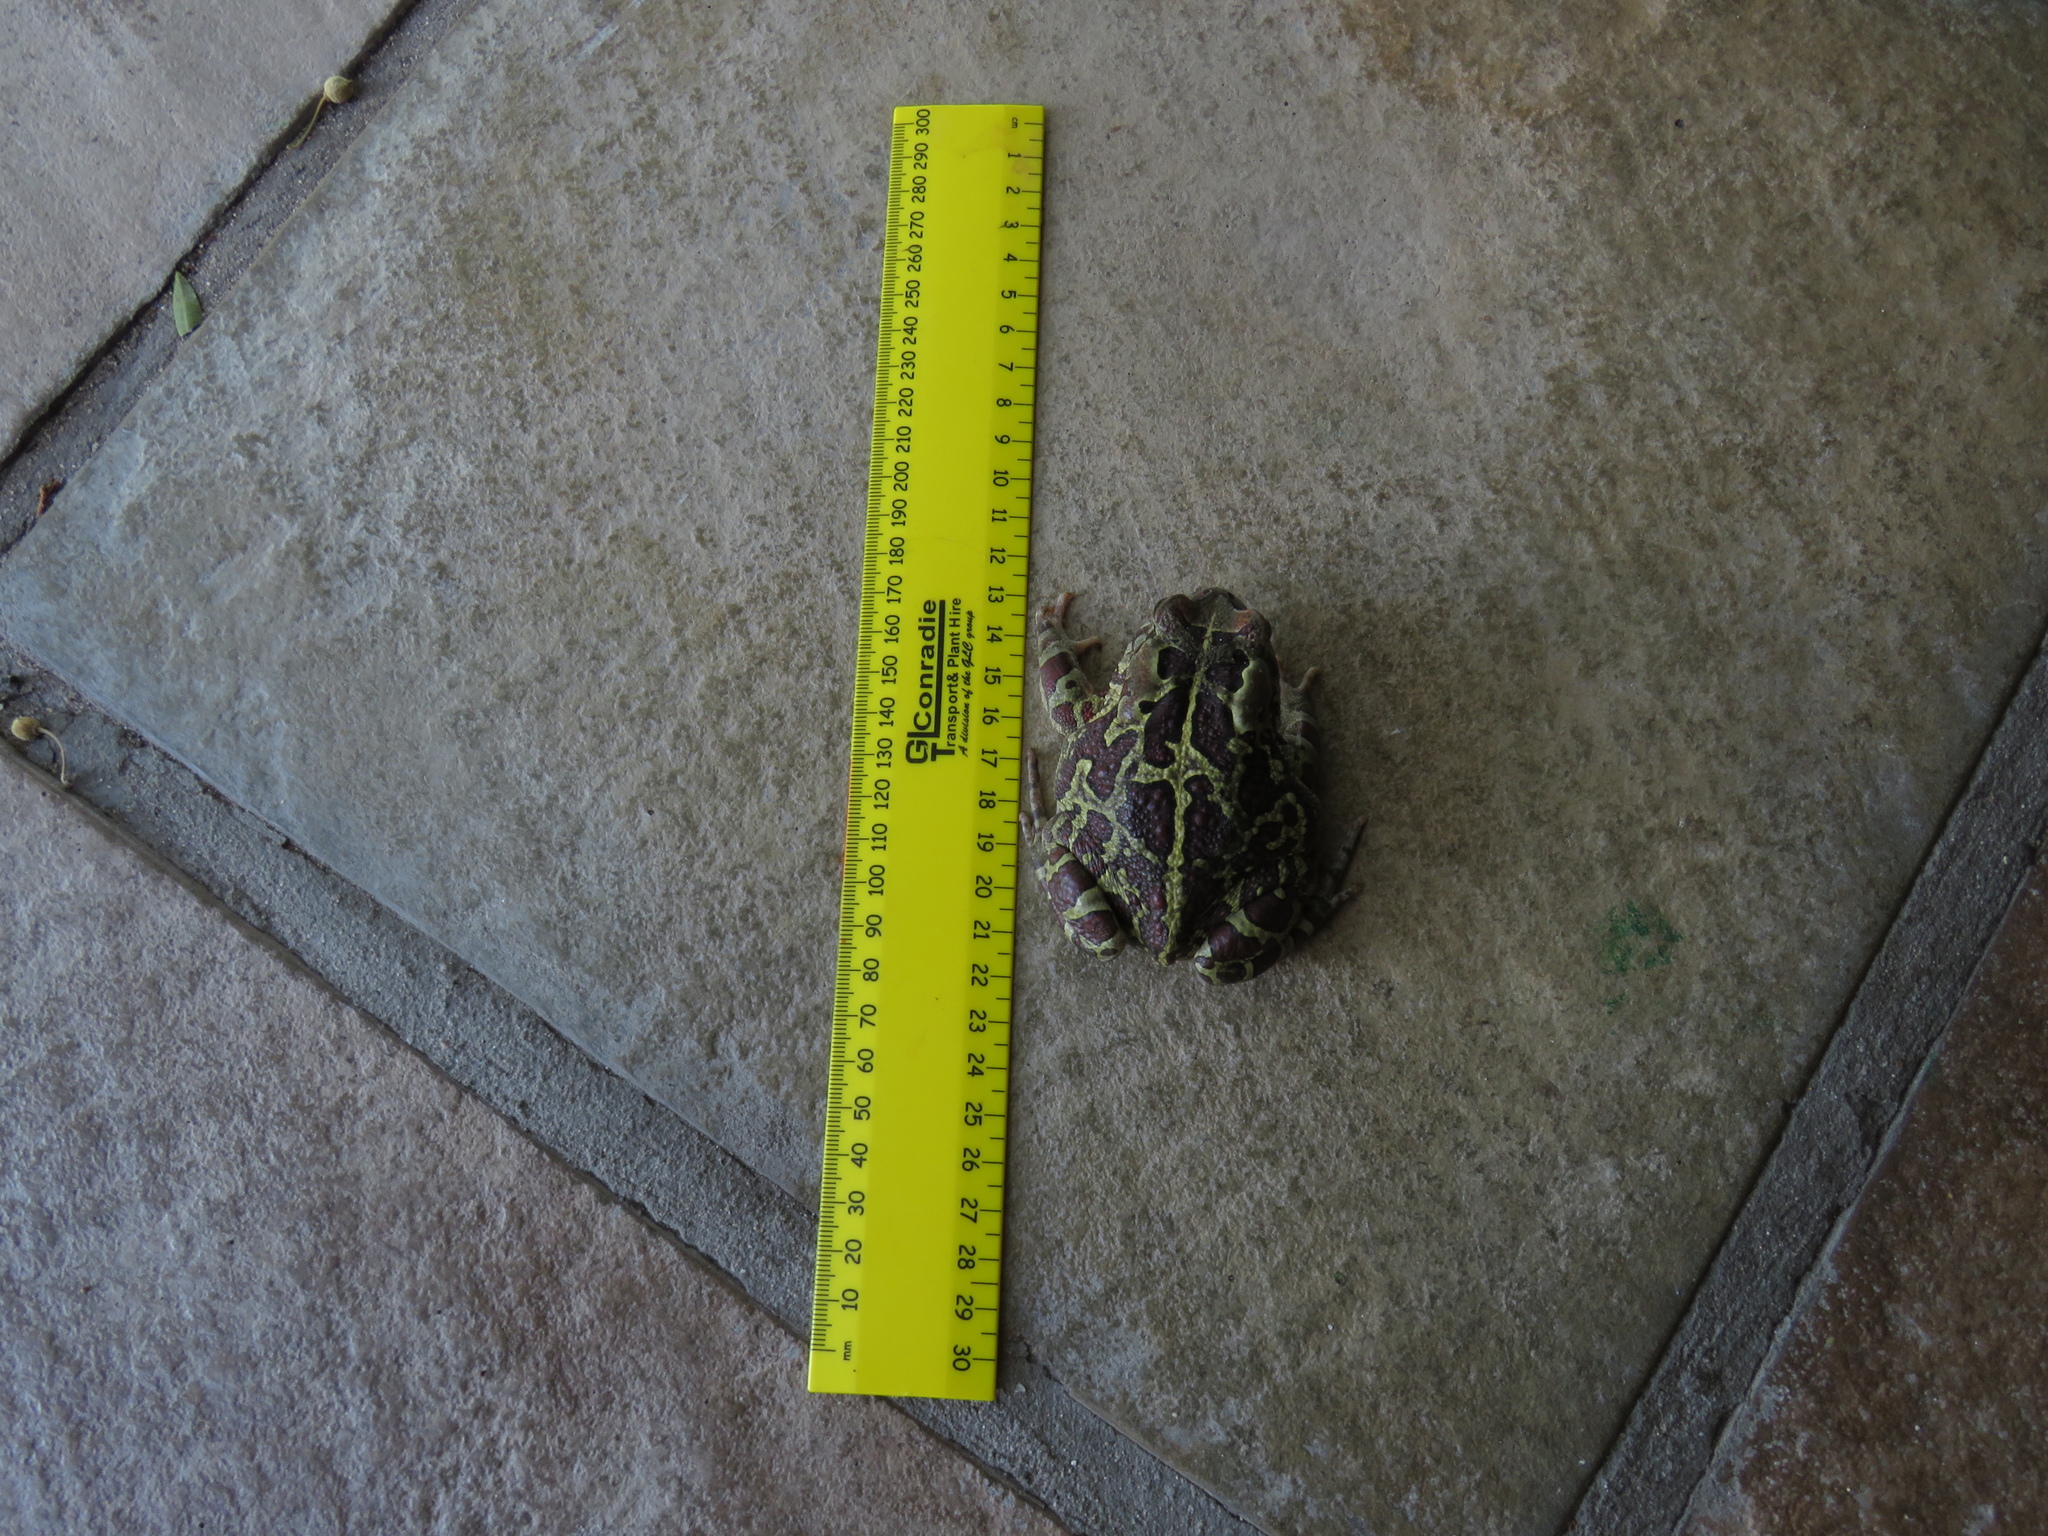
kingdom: Animalia
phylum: Chordata
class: Amphibia
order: Anura
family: Bufonidae
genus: Sclerophrys
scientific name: Sclerophrys pantherina
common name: Panther toad
